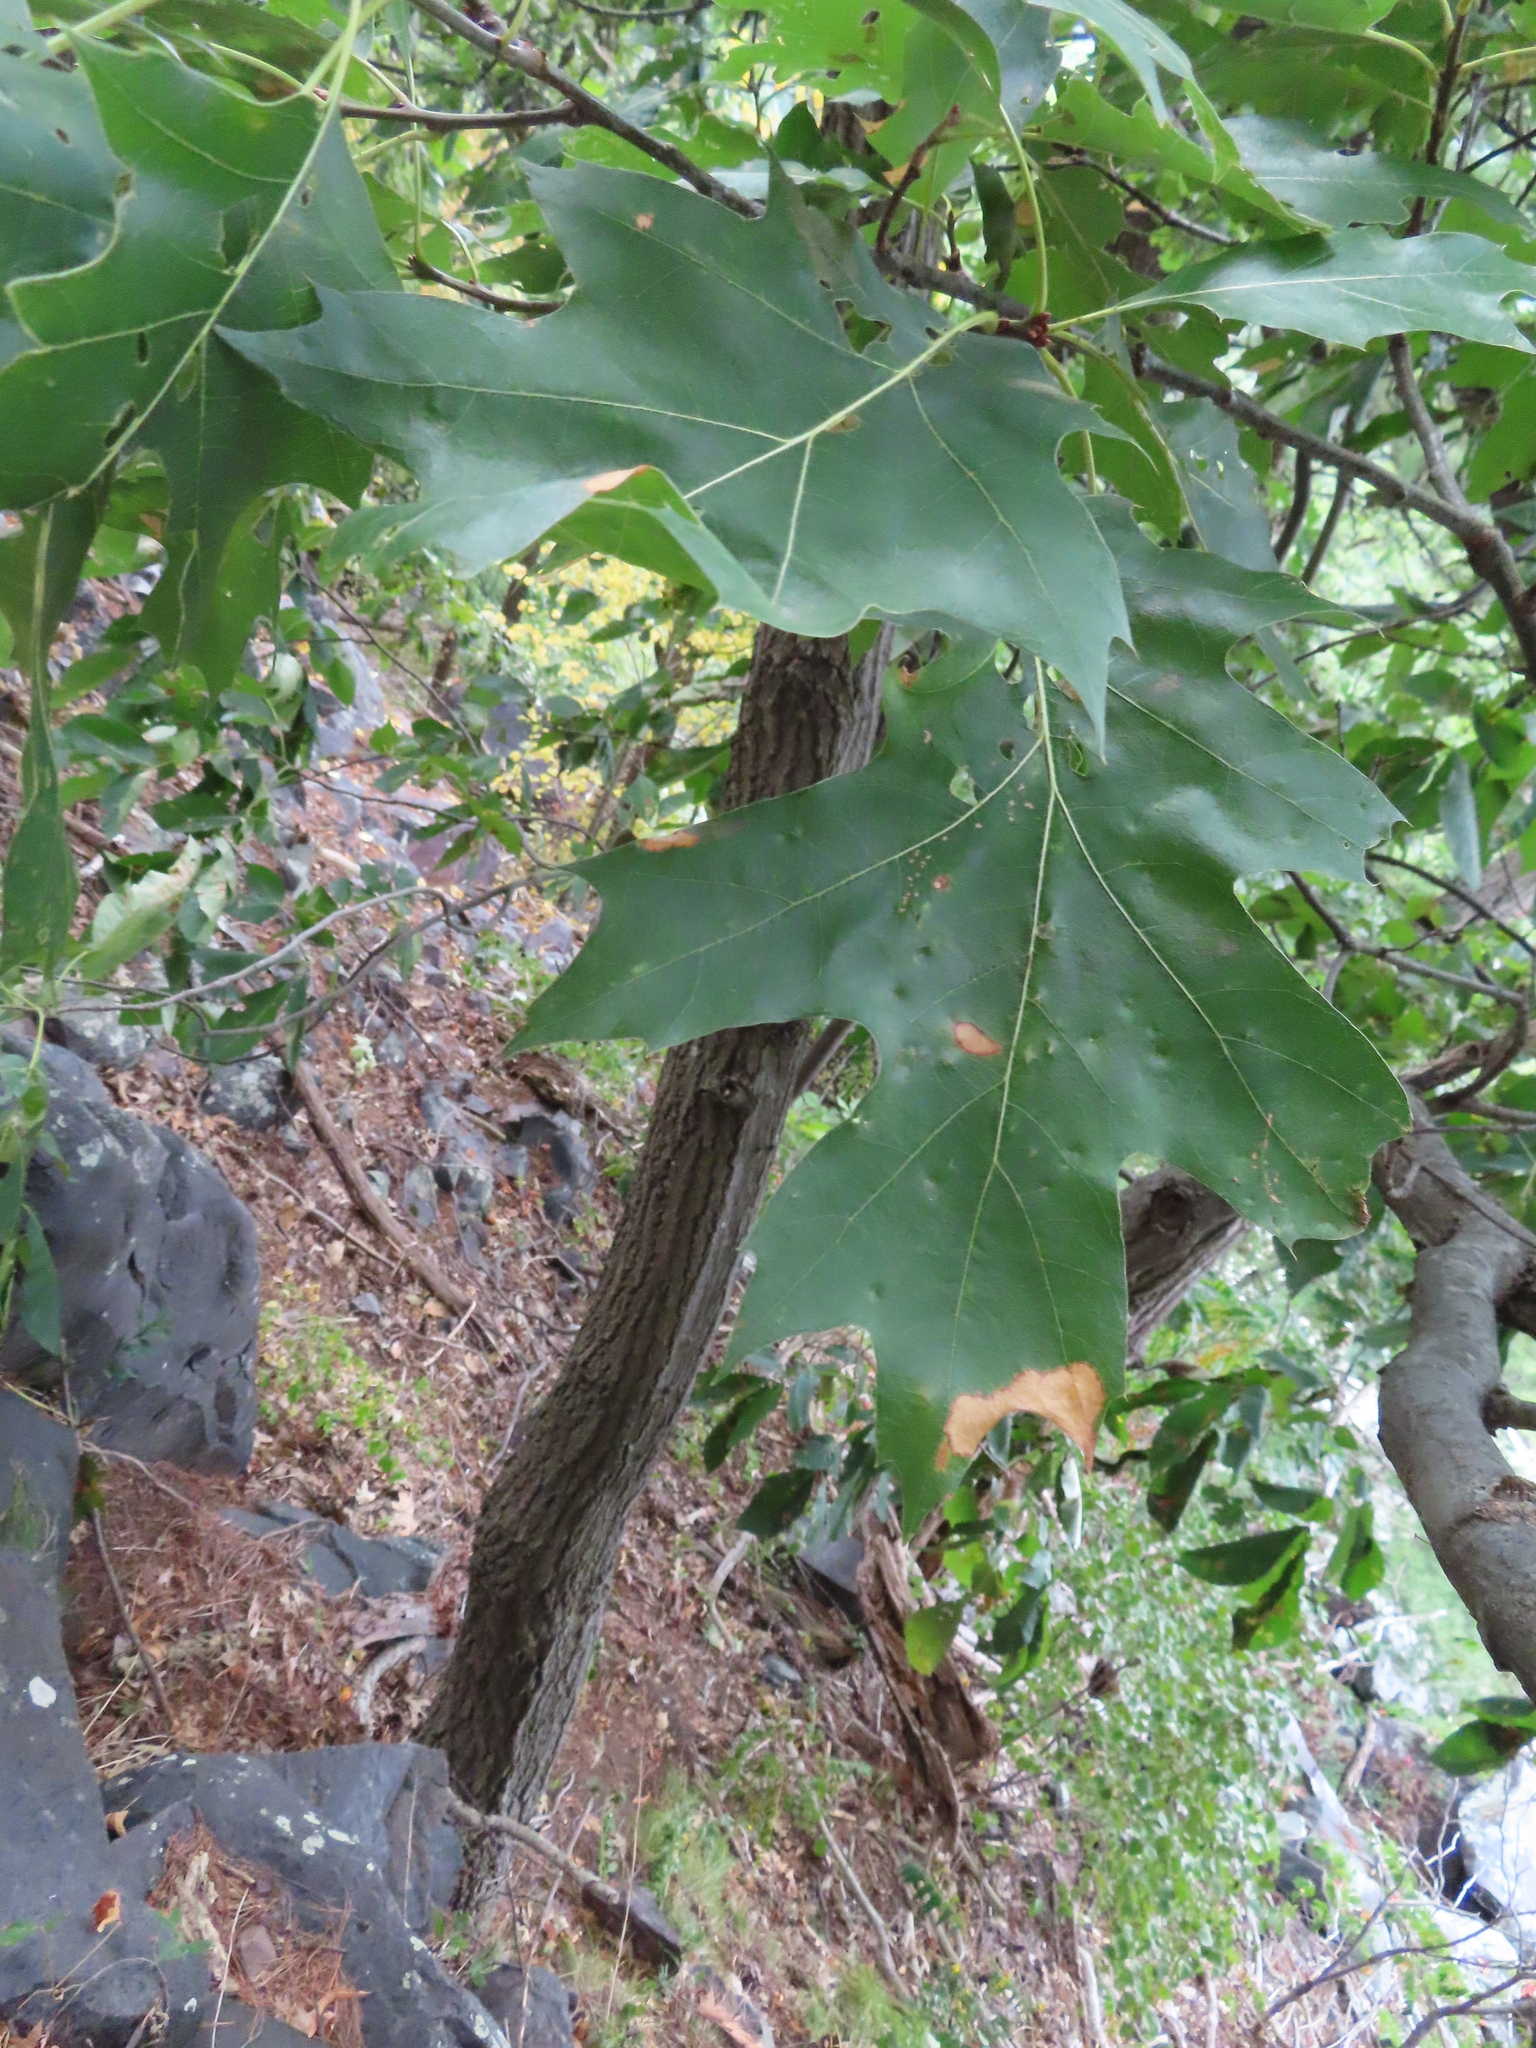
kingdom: Plantae
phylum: Tracheophyta
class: Magnoliopsida
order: Fagales
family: Fagaceae
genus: Quercus
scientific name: Quercus velutina
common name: Black oak
